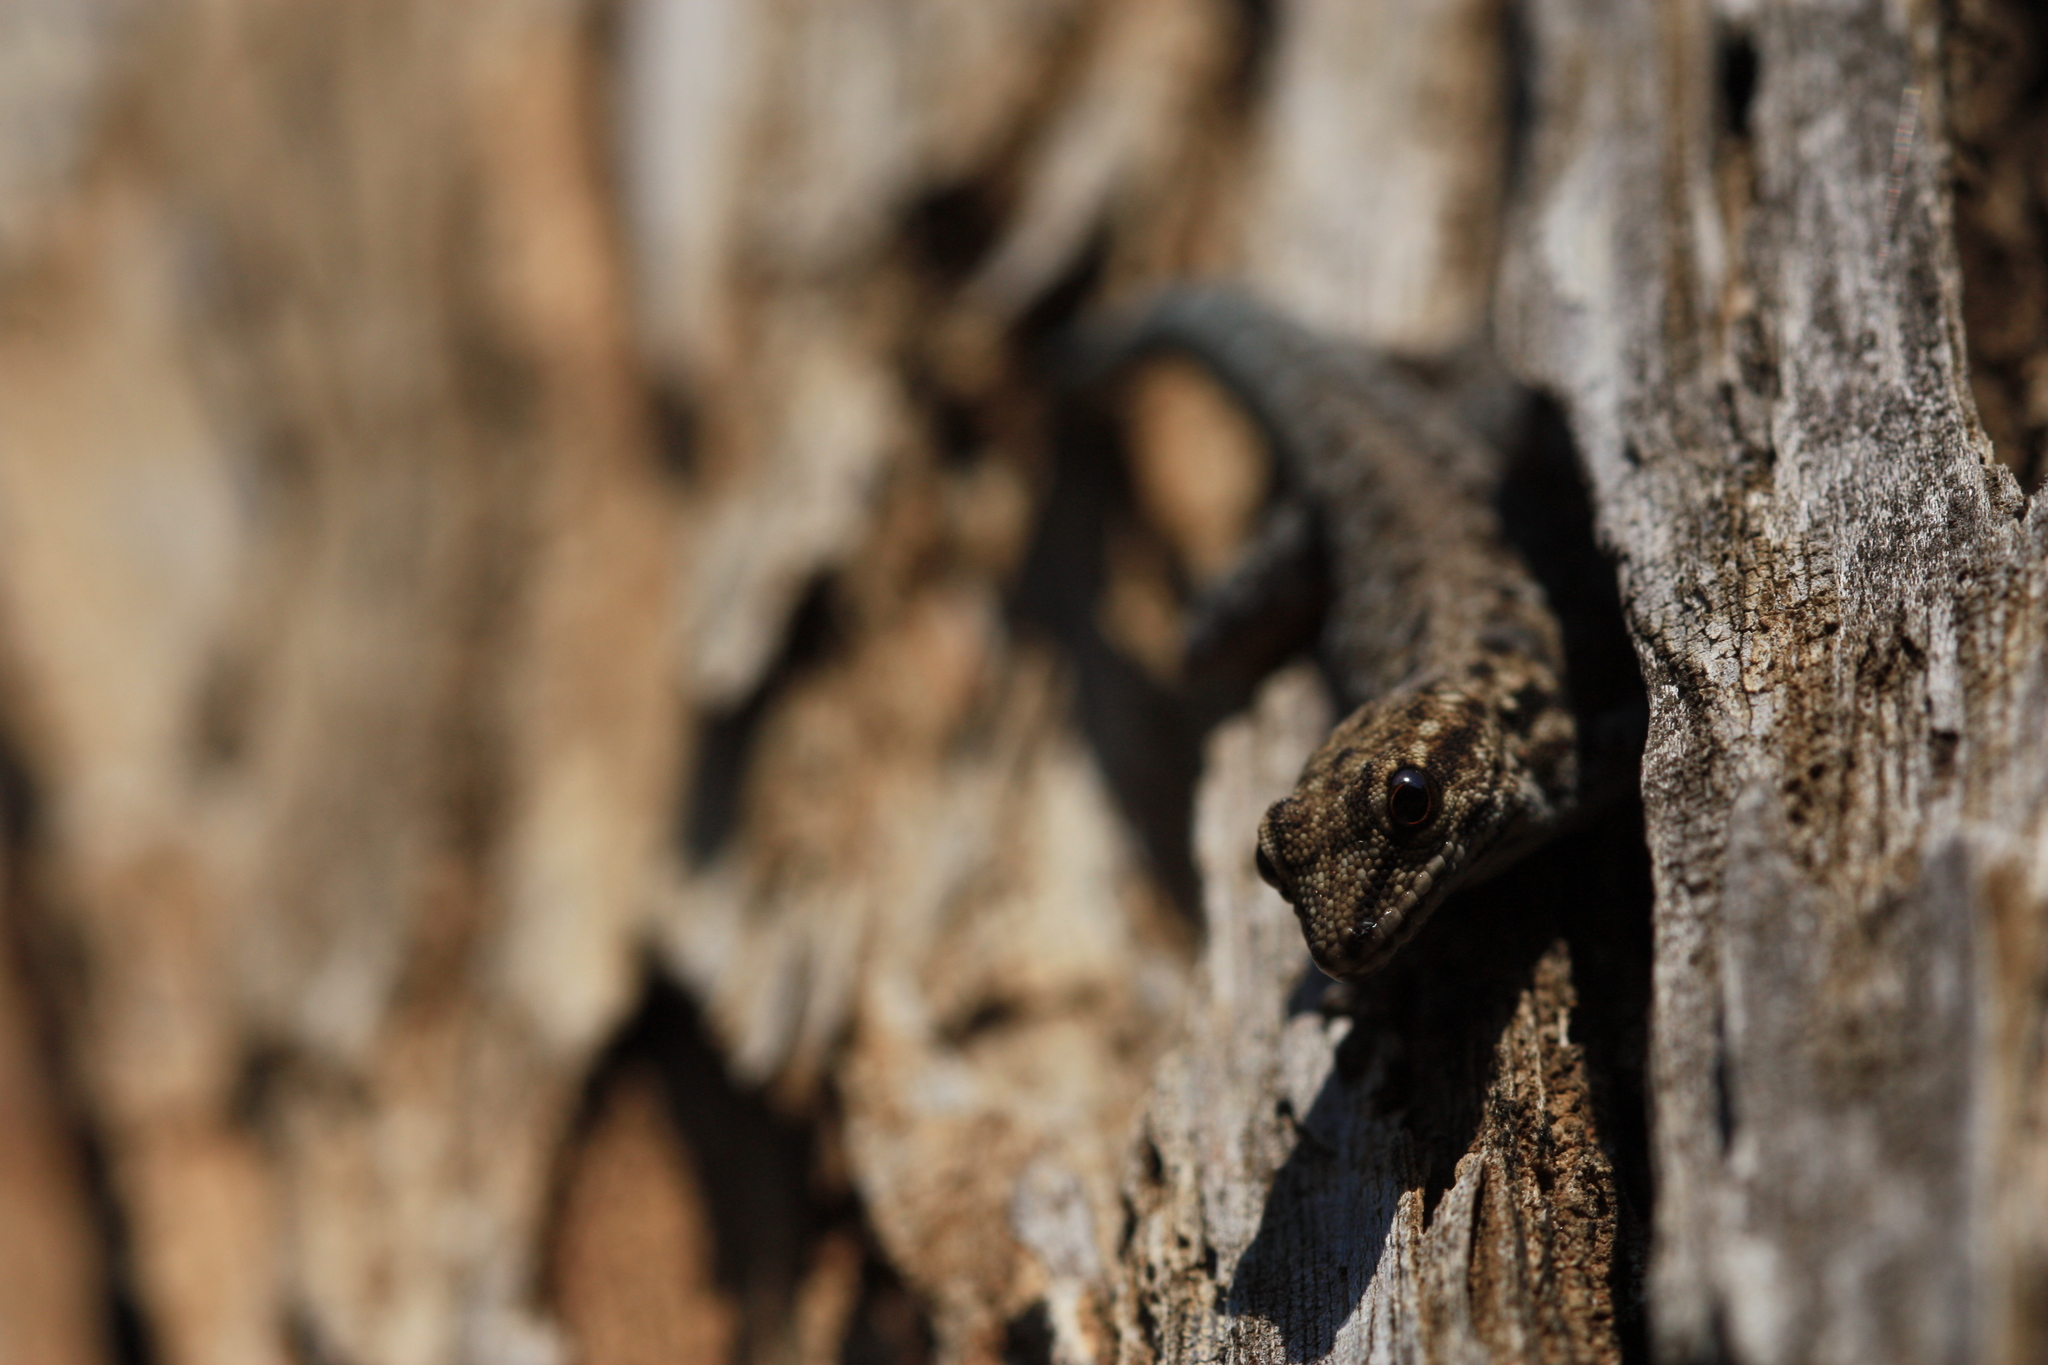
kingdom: Animalia
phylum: Chordata
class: Squamata
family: Gekkonidae
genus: Lygodactylus
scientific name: Lygodactylus chobiensis
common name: Okavango dwarf gecko
